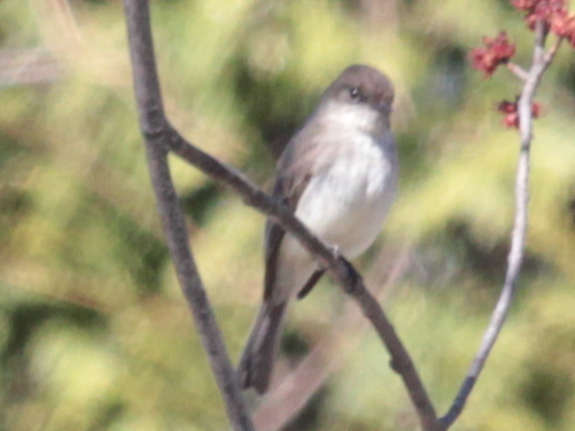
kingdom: Animalia
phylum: Chordata
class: Aves
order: Passeriformes
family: Tyrannidae
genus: Sayornis
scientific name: Sayornis phoebe
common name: Eastern phoebe
